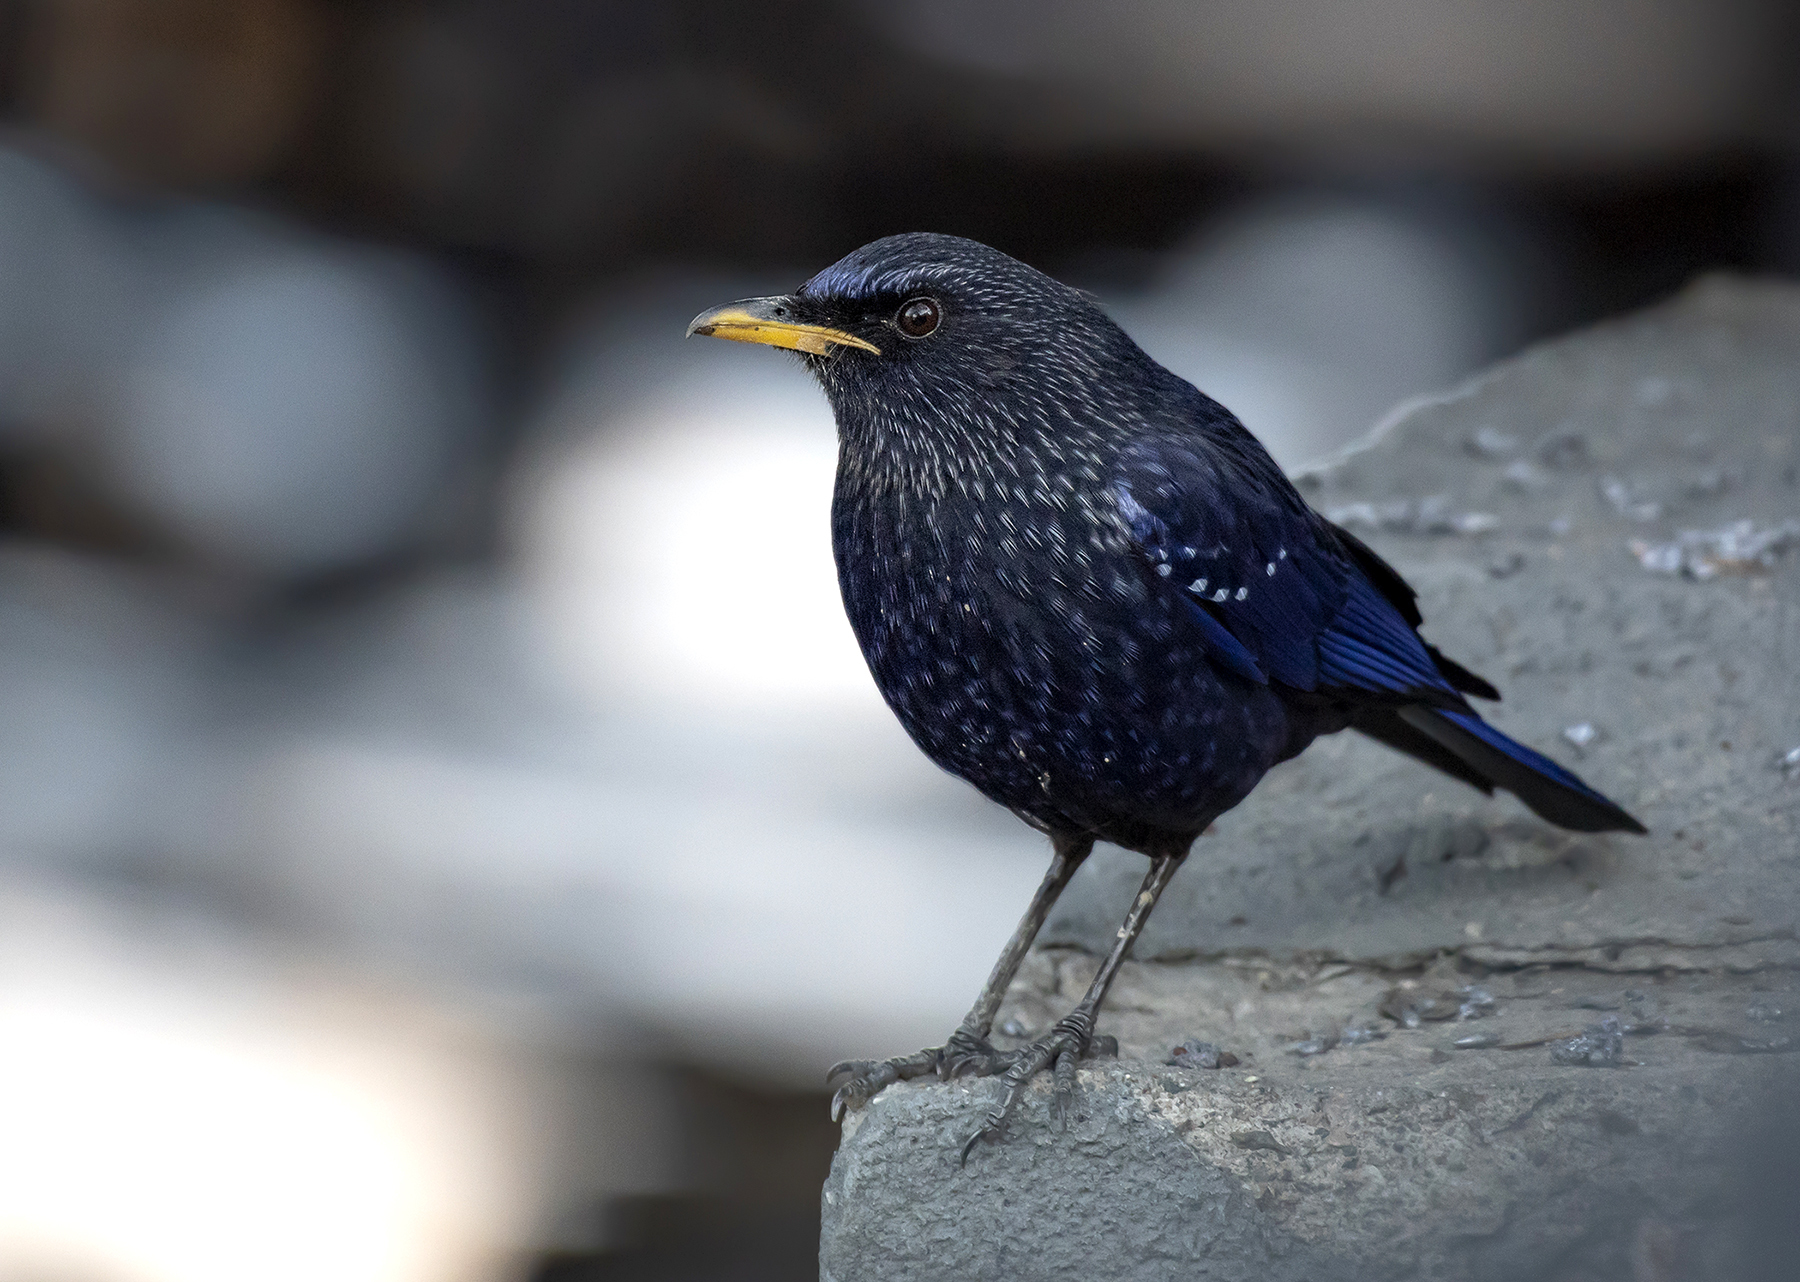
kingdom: Animalia
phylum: Chordata
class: Aves
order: Passeriformes
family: Muscicapidae
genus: Myophonus
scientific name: Myophonus caeruleus
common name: Blue whistling-thrush
